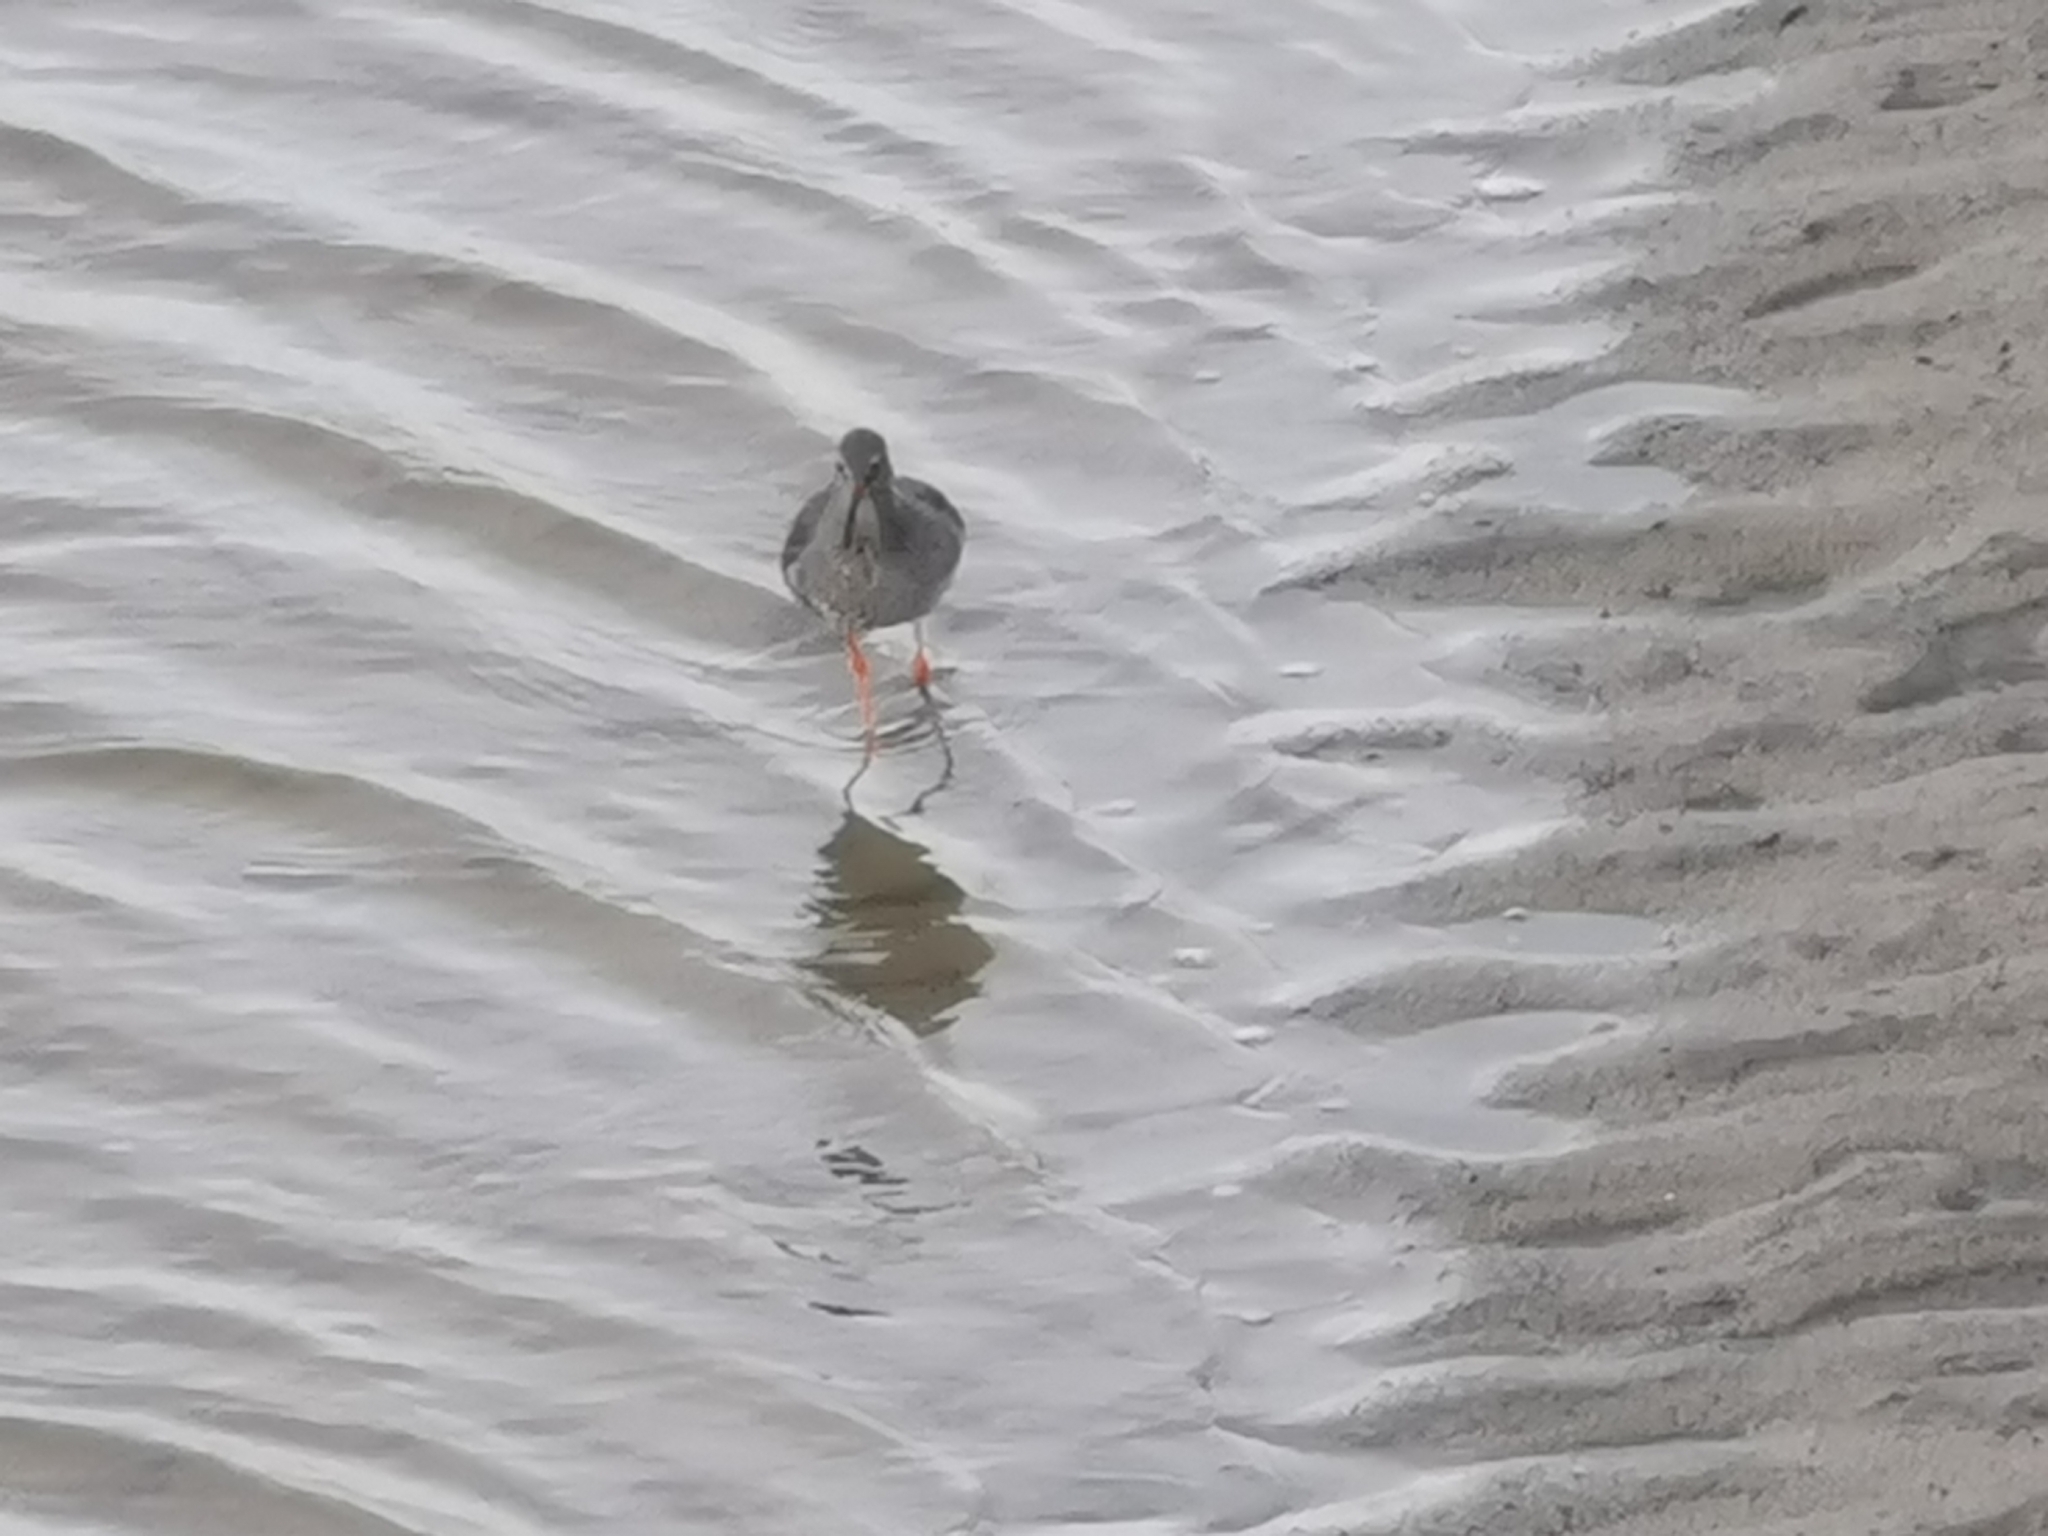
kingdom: Animalia
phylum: Chordata
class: Aves
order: Charadriiformes
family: Scolopacidae
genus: Tringa
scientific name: Tringa totanus
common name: Common redshank
